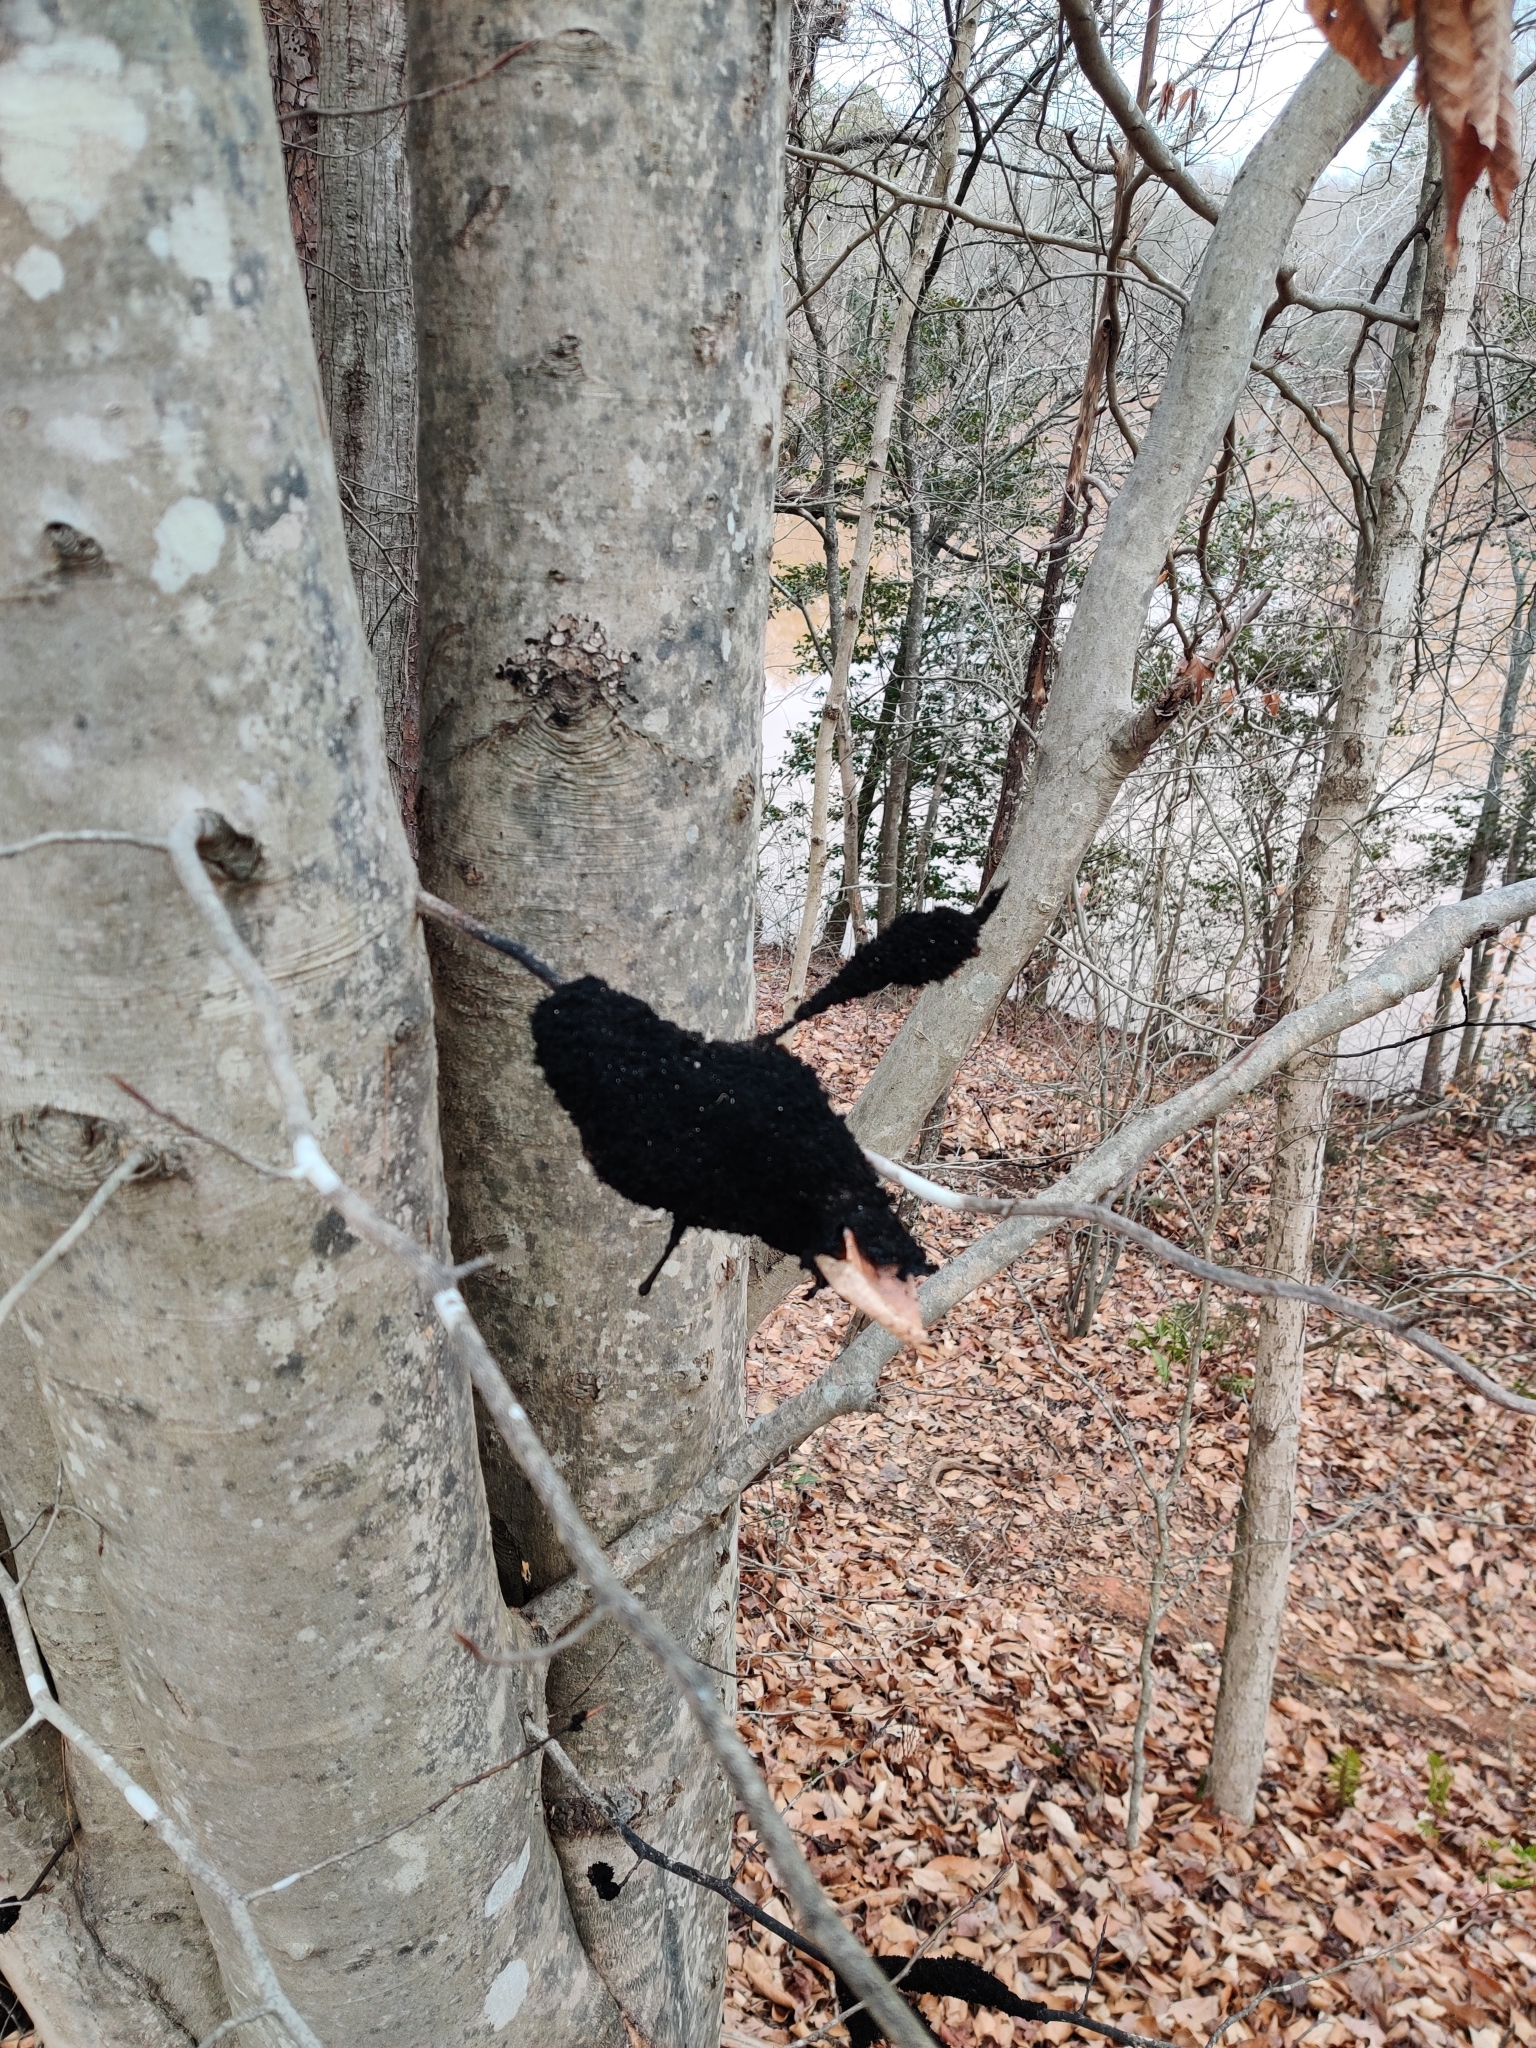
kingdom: Fungi
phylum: Ascomycota
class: Dothideomycetes
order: Capnodiales
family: Capnodiaceae
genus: Scorias
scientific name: Scorias spongiosa
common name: Black sooty mold
